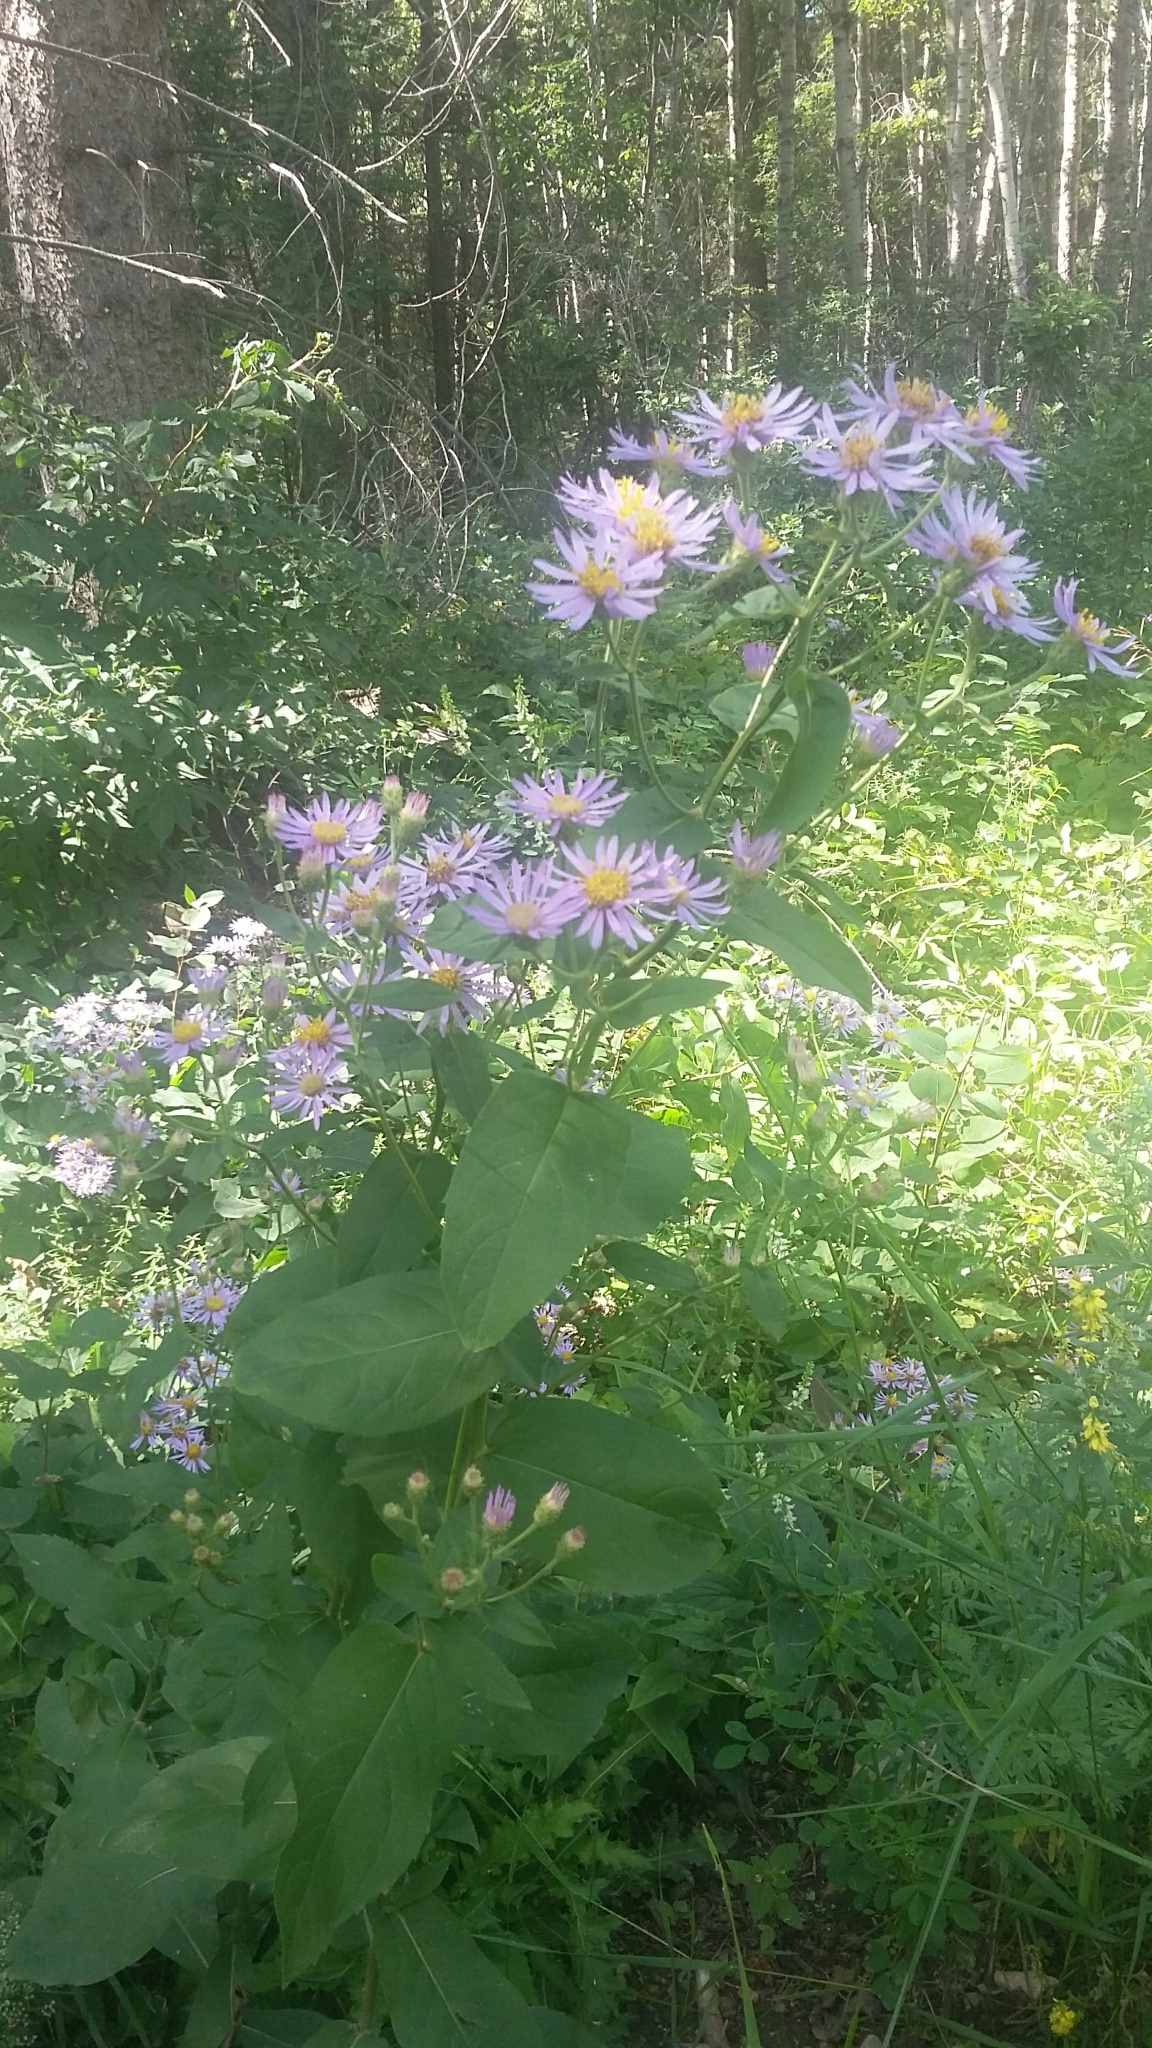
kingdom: Plantae
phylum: Tracheophyta
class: Magnoliopsida
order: Asterales
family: Asteraceae
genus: Eurybia
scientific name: Eurybia conspicua
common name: Showy aster
